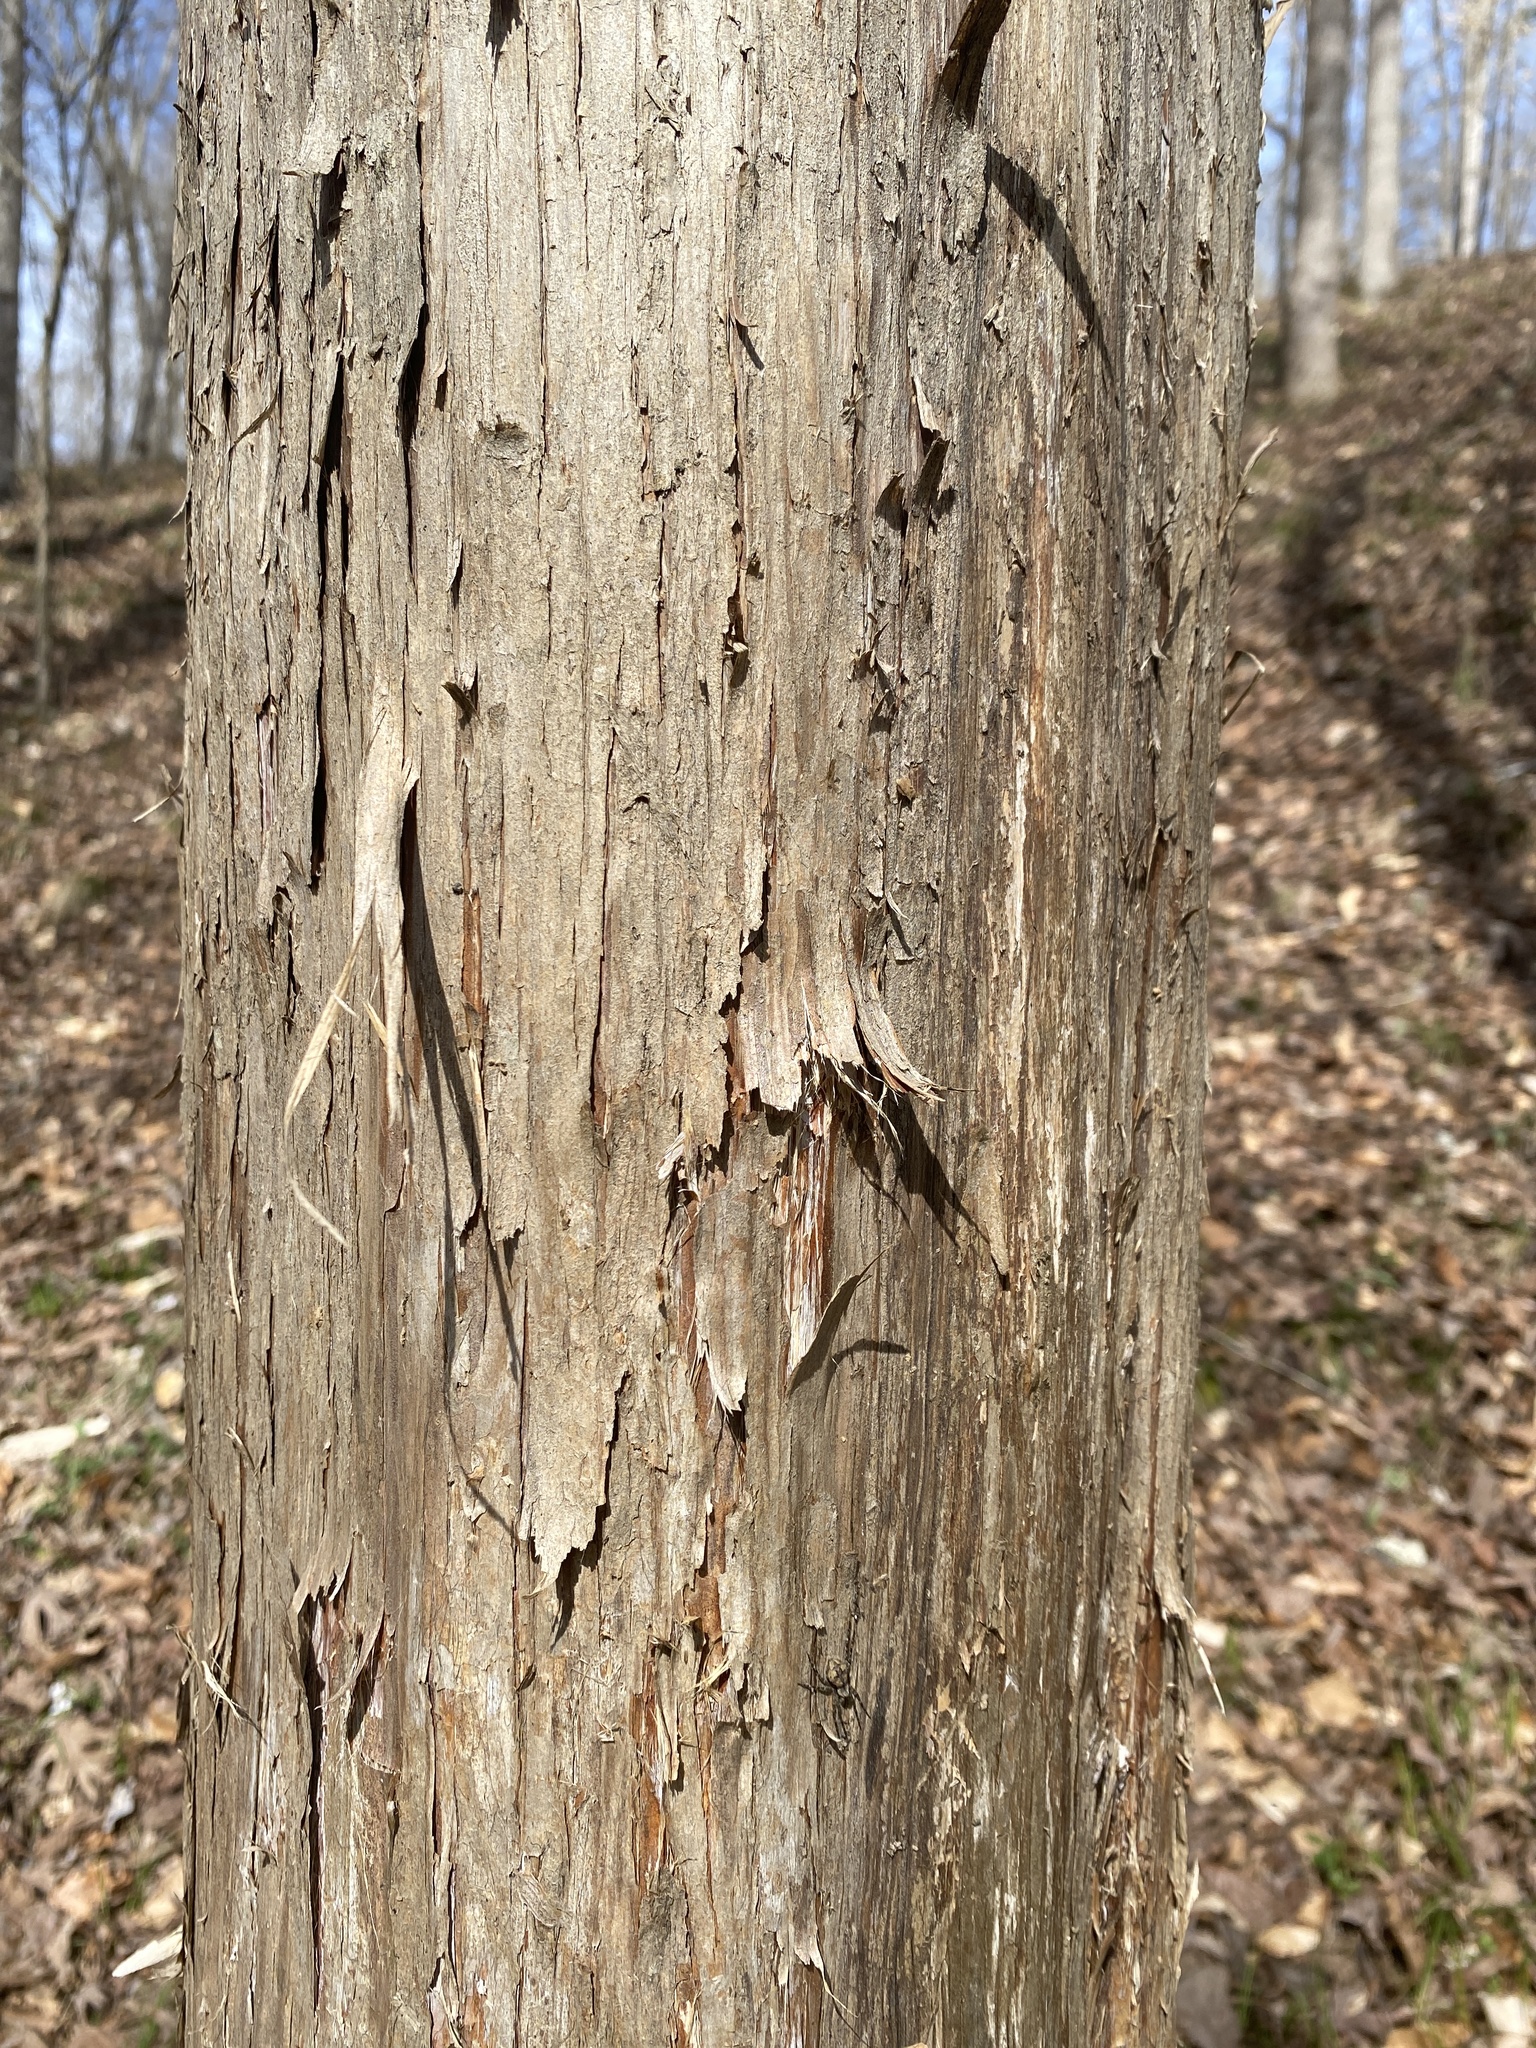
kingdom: Plantae
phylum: Tracheophyta
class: Pinopsida
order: Pinales
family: Cupressaceae
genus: Juniperus
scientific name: Juniperus virginiana
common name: Red juniper
